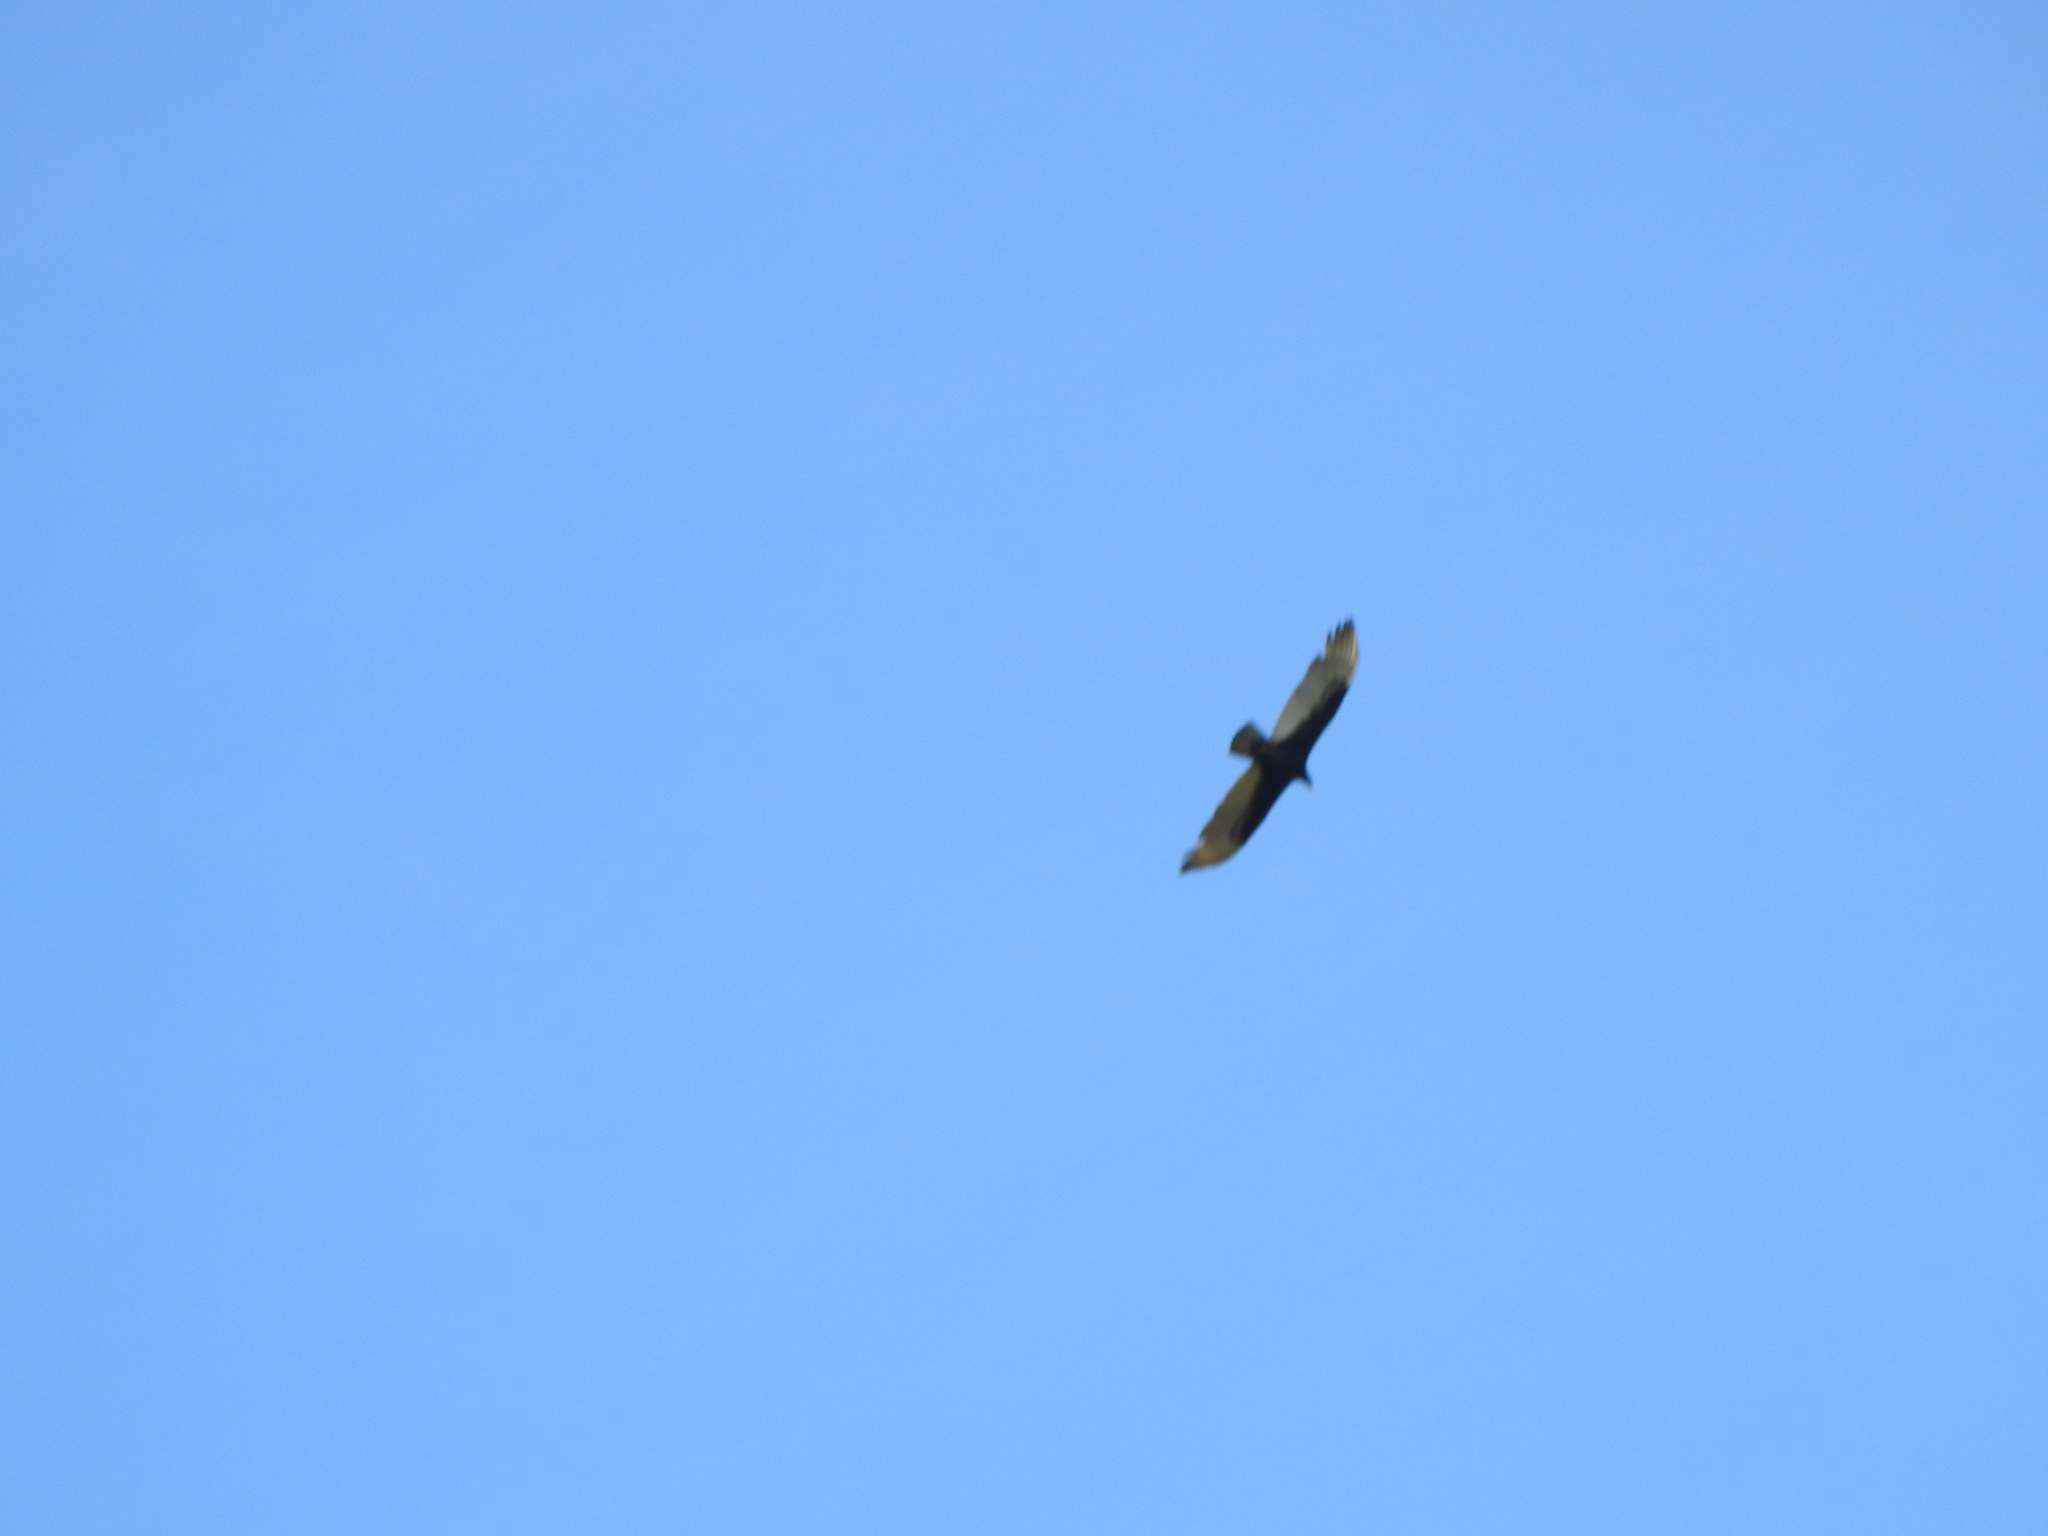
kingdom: Animalia
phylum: Chordata
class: Aves
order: Accipitriformes
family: Cathartidae
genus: Cathartes
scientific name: Cathartes aura
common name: Turkey vulture
